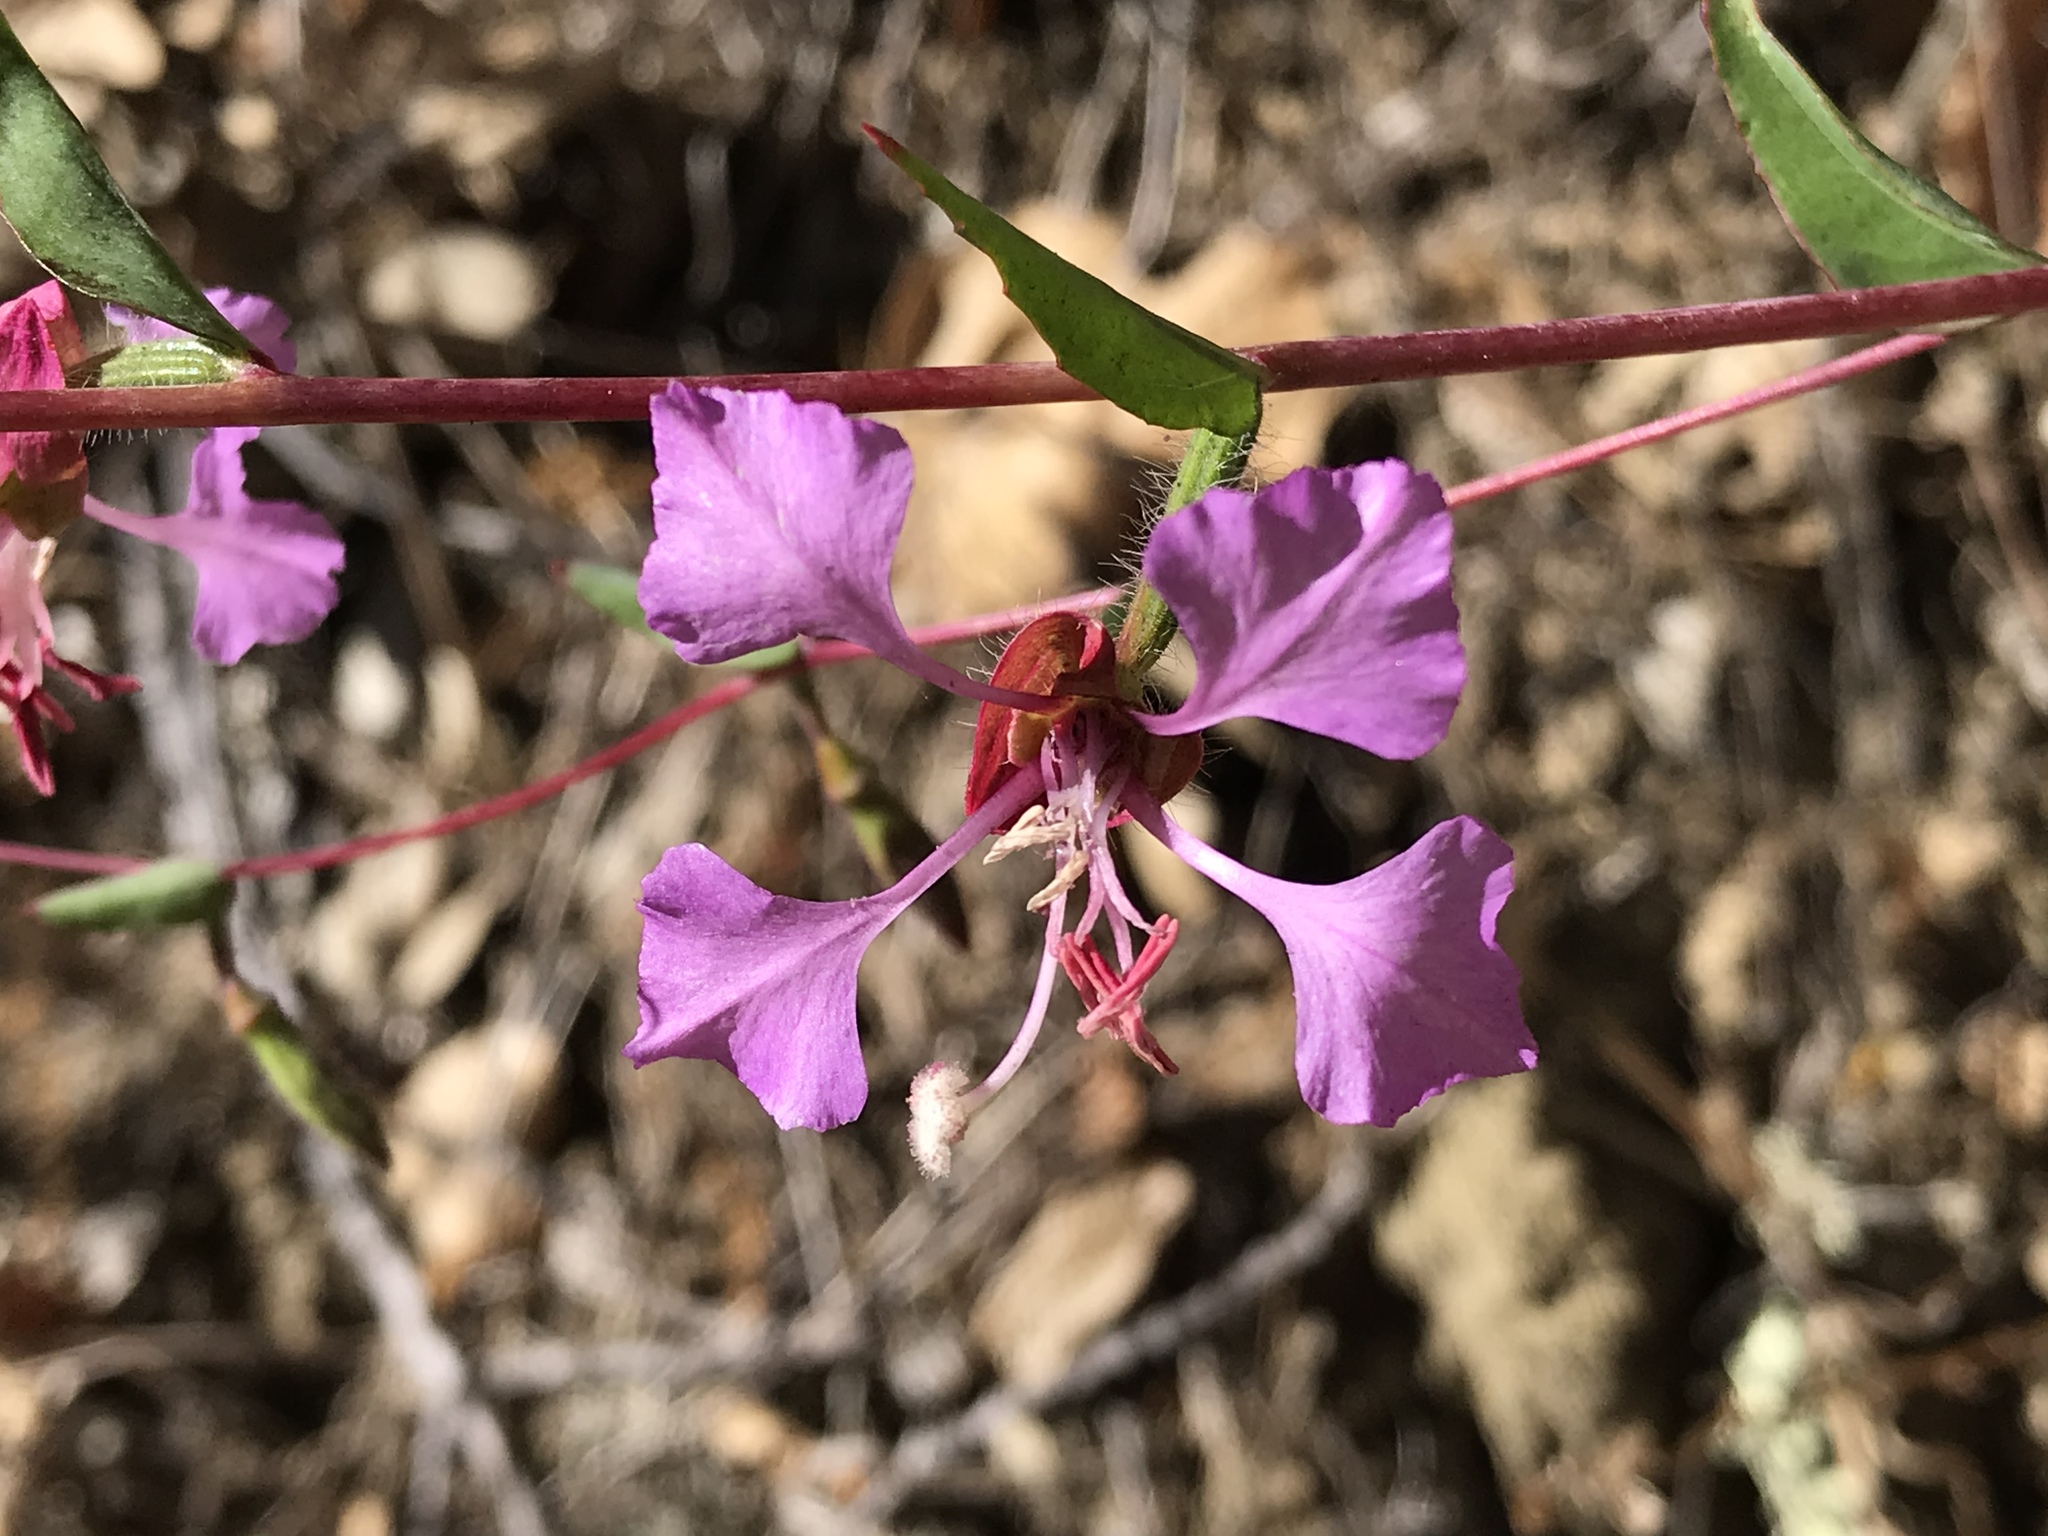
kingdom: Plantae
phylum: Tracheophyta
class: Magnoliopsida
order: Myrtales
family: Onagraceae
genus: Clarkia
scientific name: Clarkia unguiculata
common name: Clarkia
